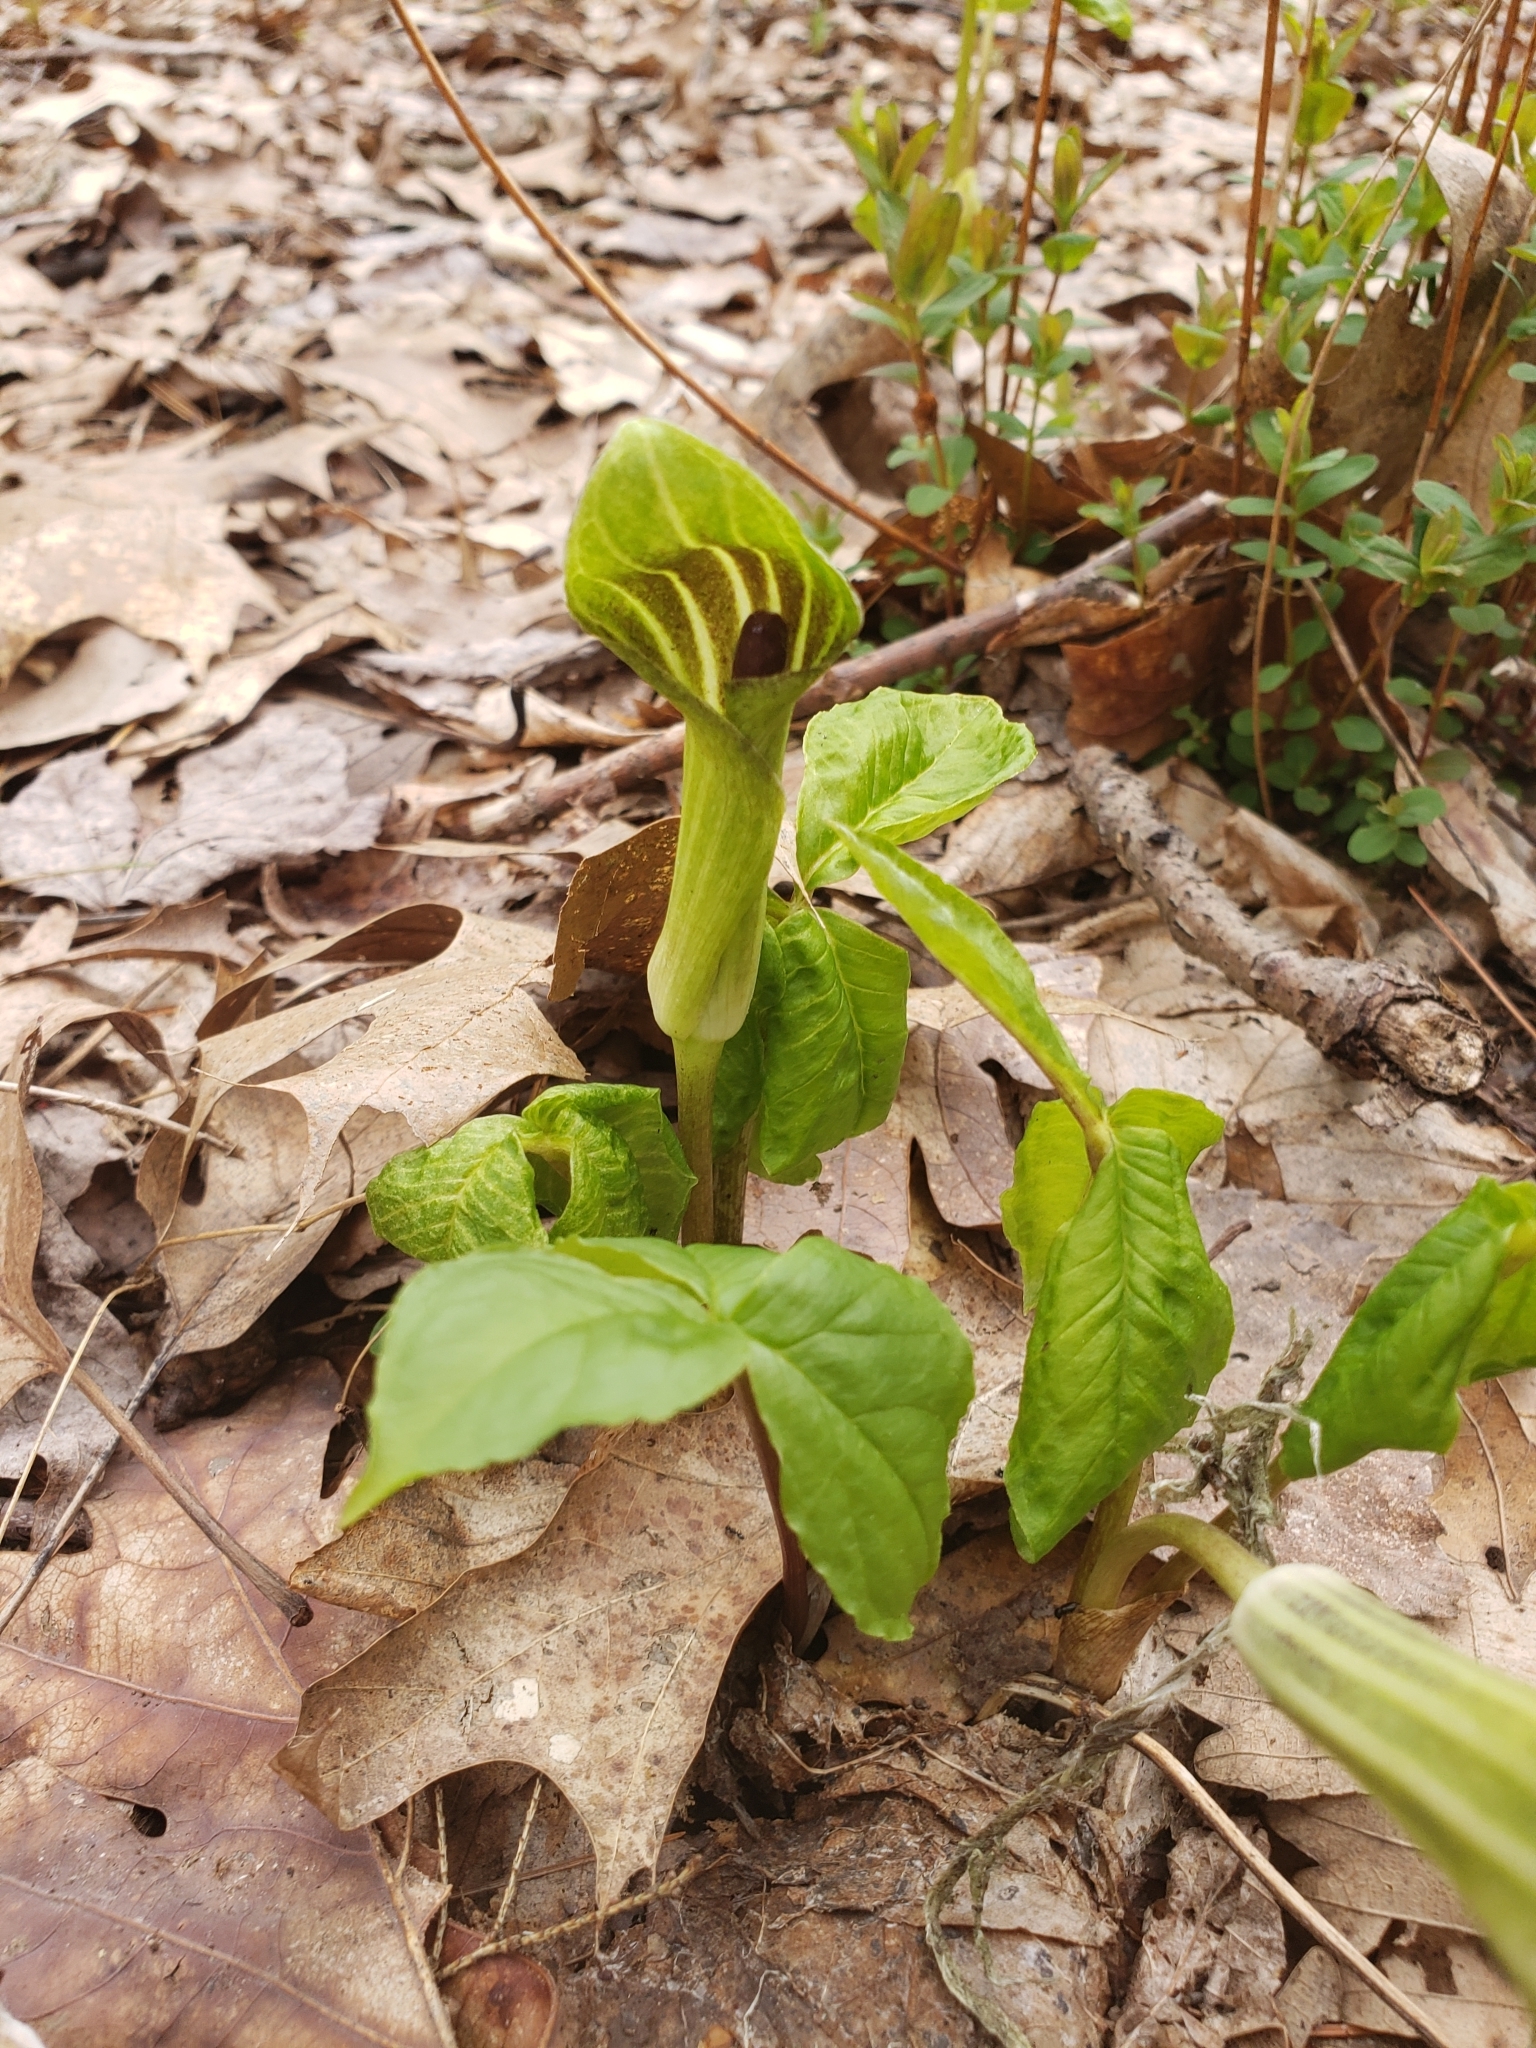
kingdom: Plantae
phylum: Tracheophyta
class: Liliopsida
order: Alismatales
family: Araceae
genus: Arisaema
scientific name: Arisaema triphyllum
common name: Jack-in-the-pulpit
